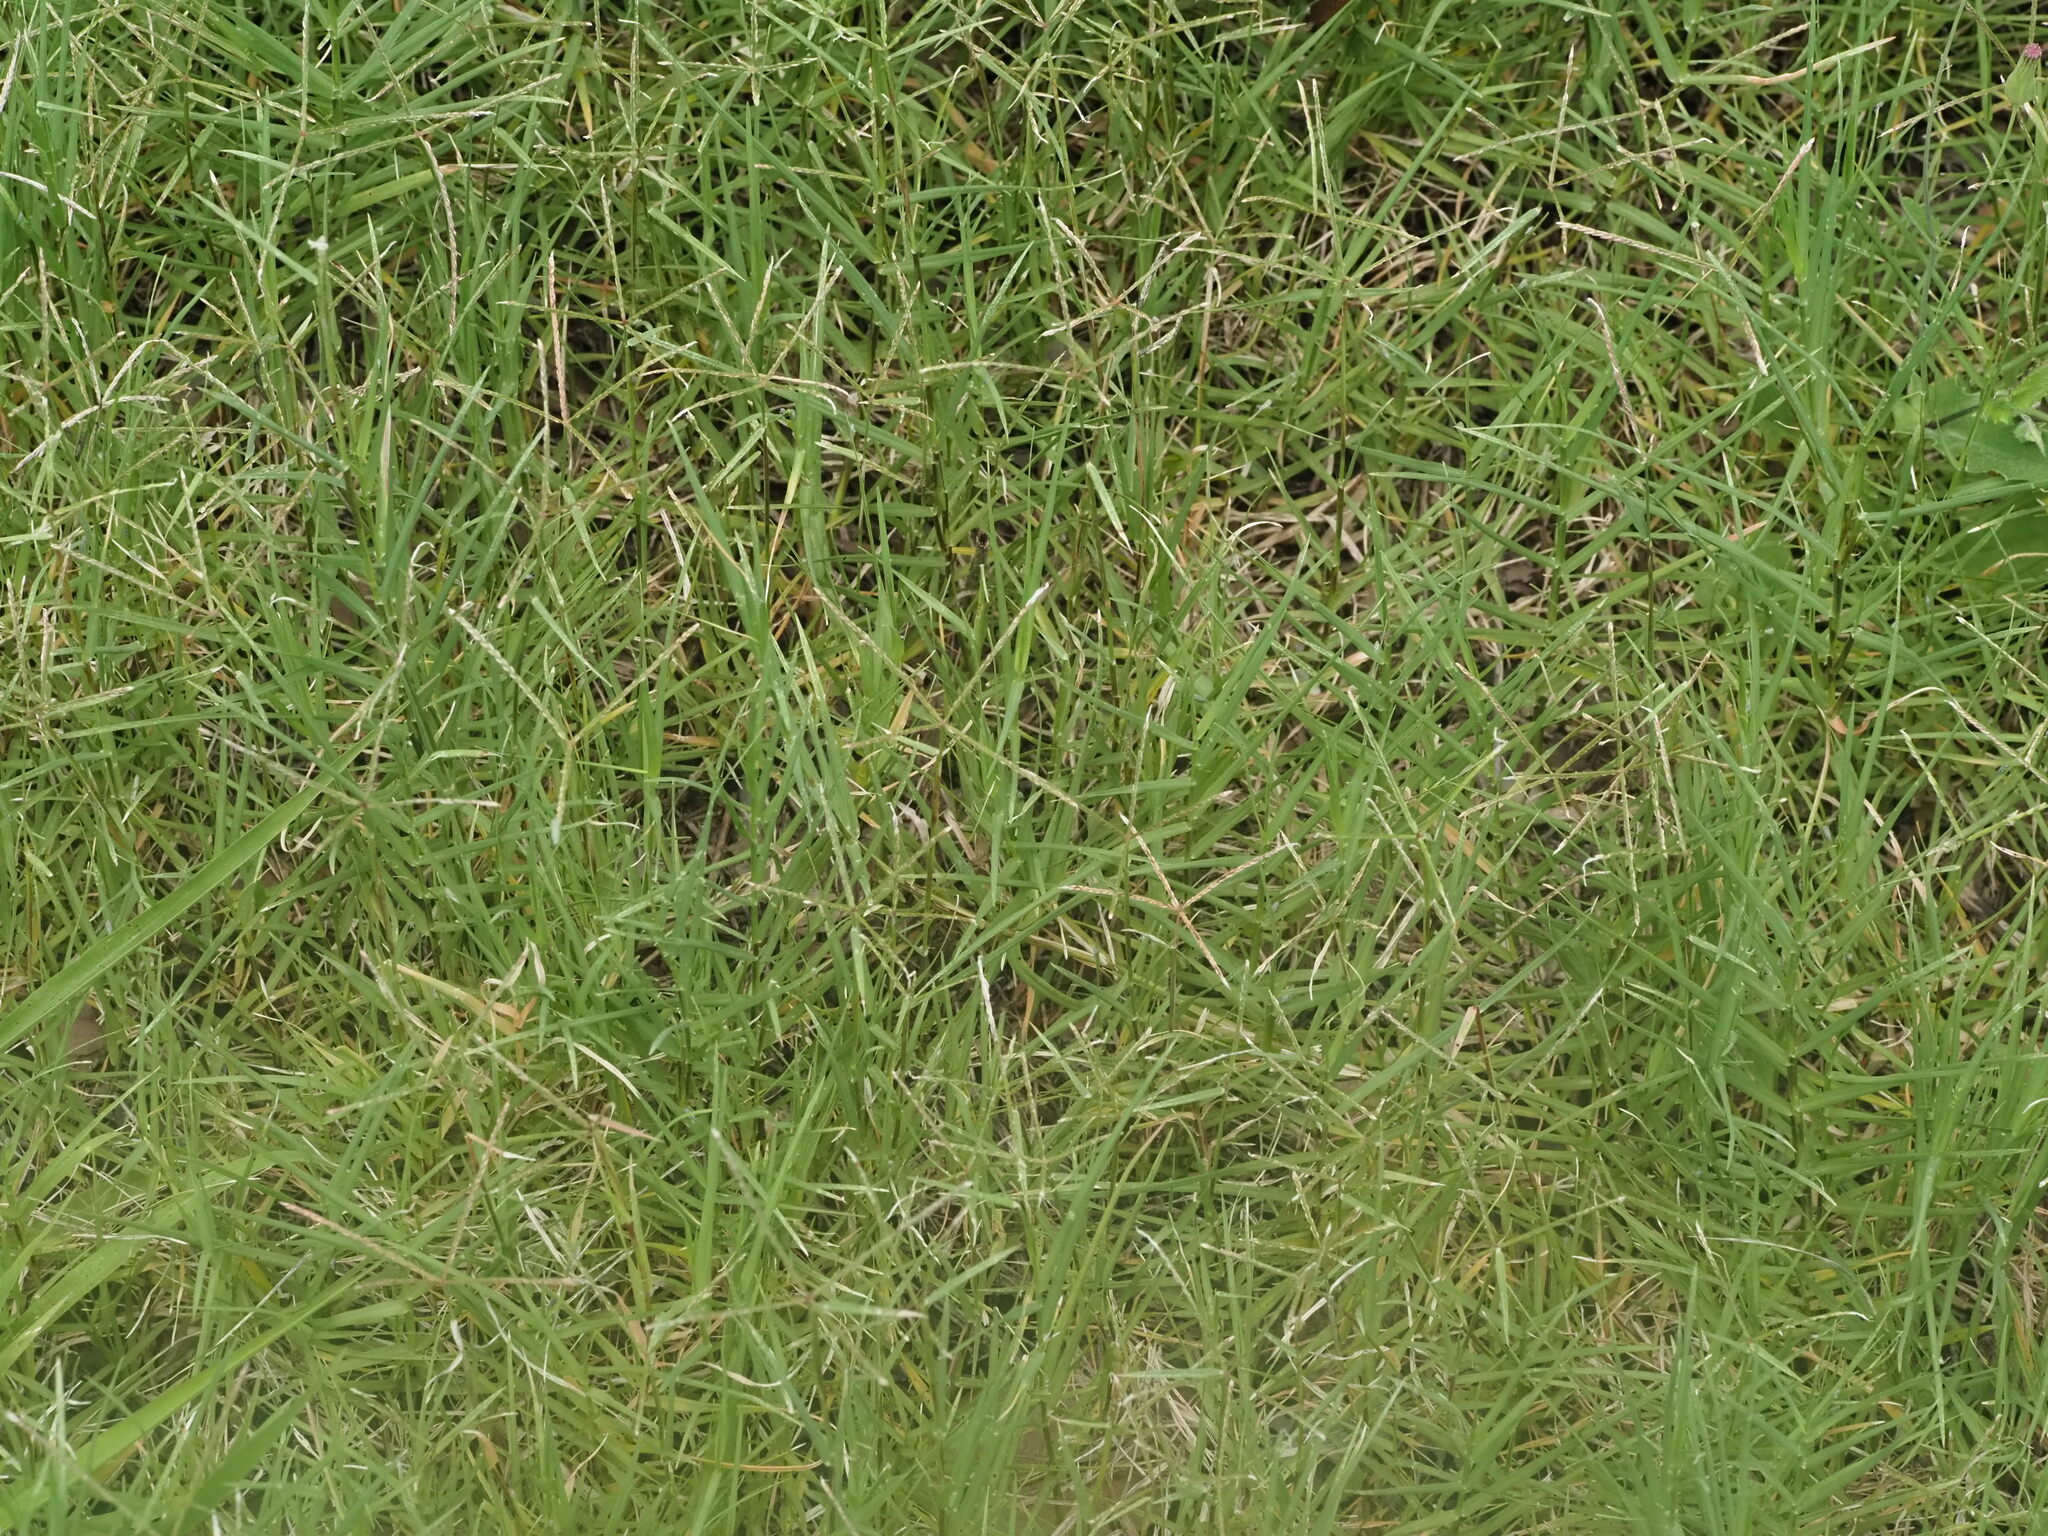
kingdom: Plantae
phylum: Tracheophyta
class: Liliopsida
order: Poales
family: Poaceae
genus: Cynodon
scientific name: Cynodon dactylon
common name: Bermuda grass
